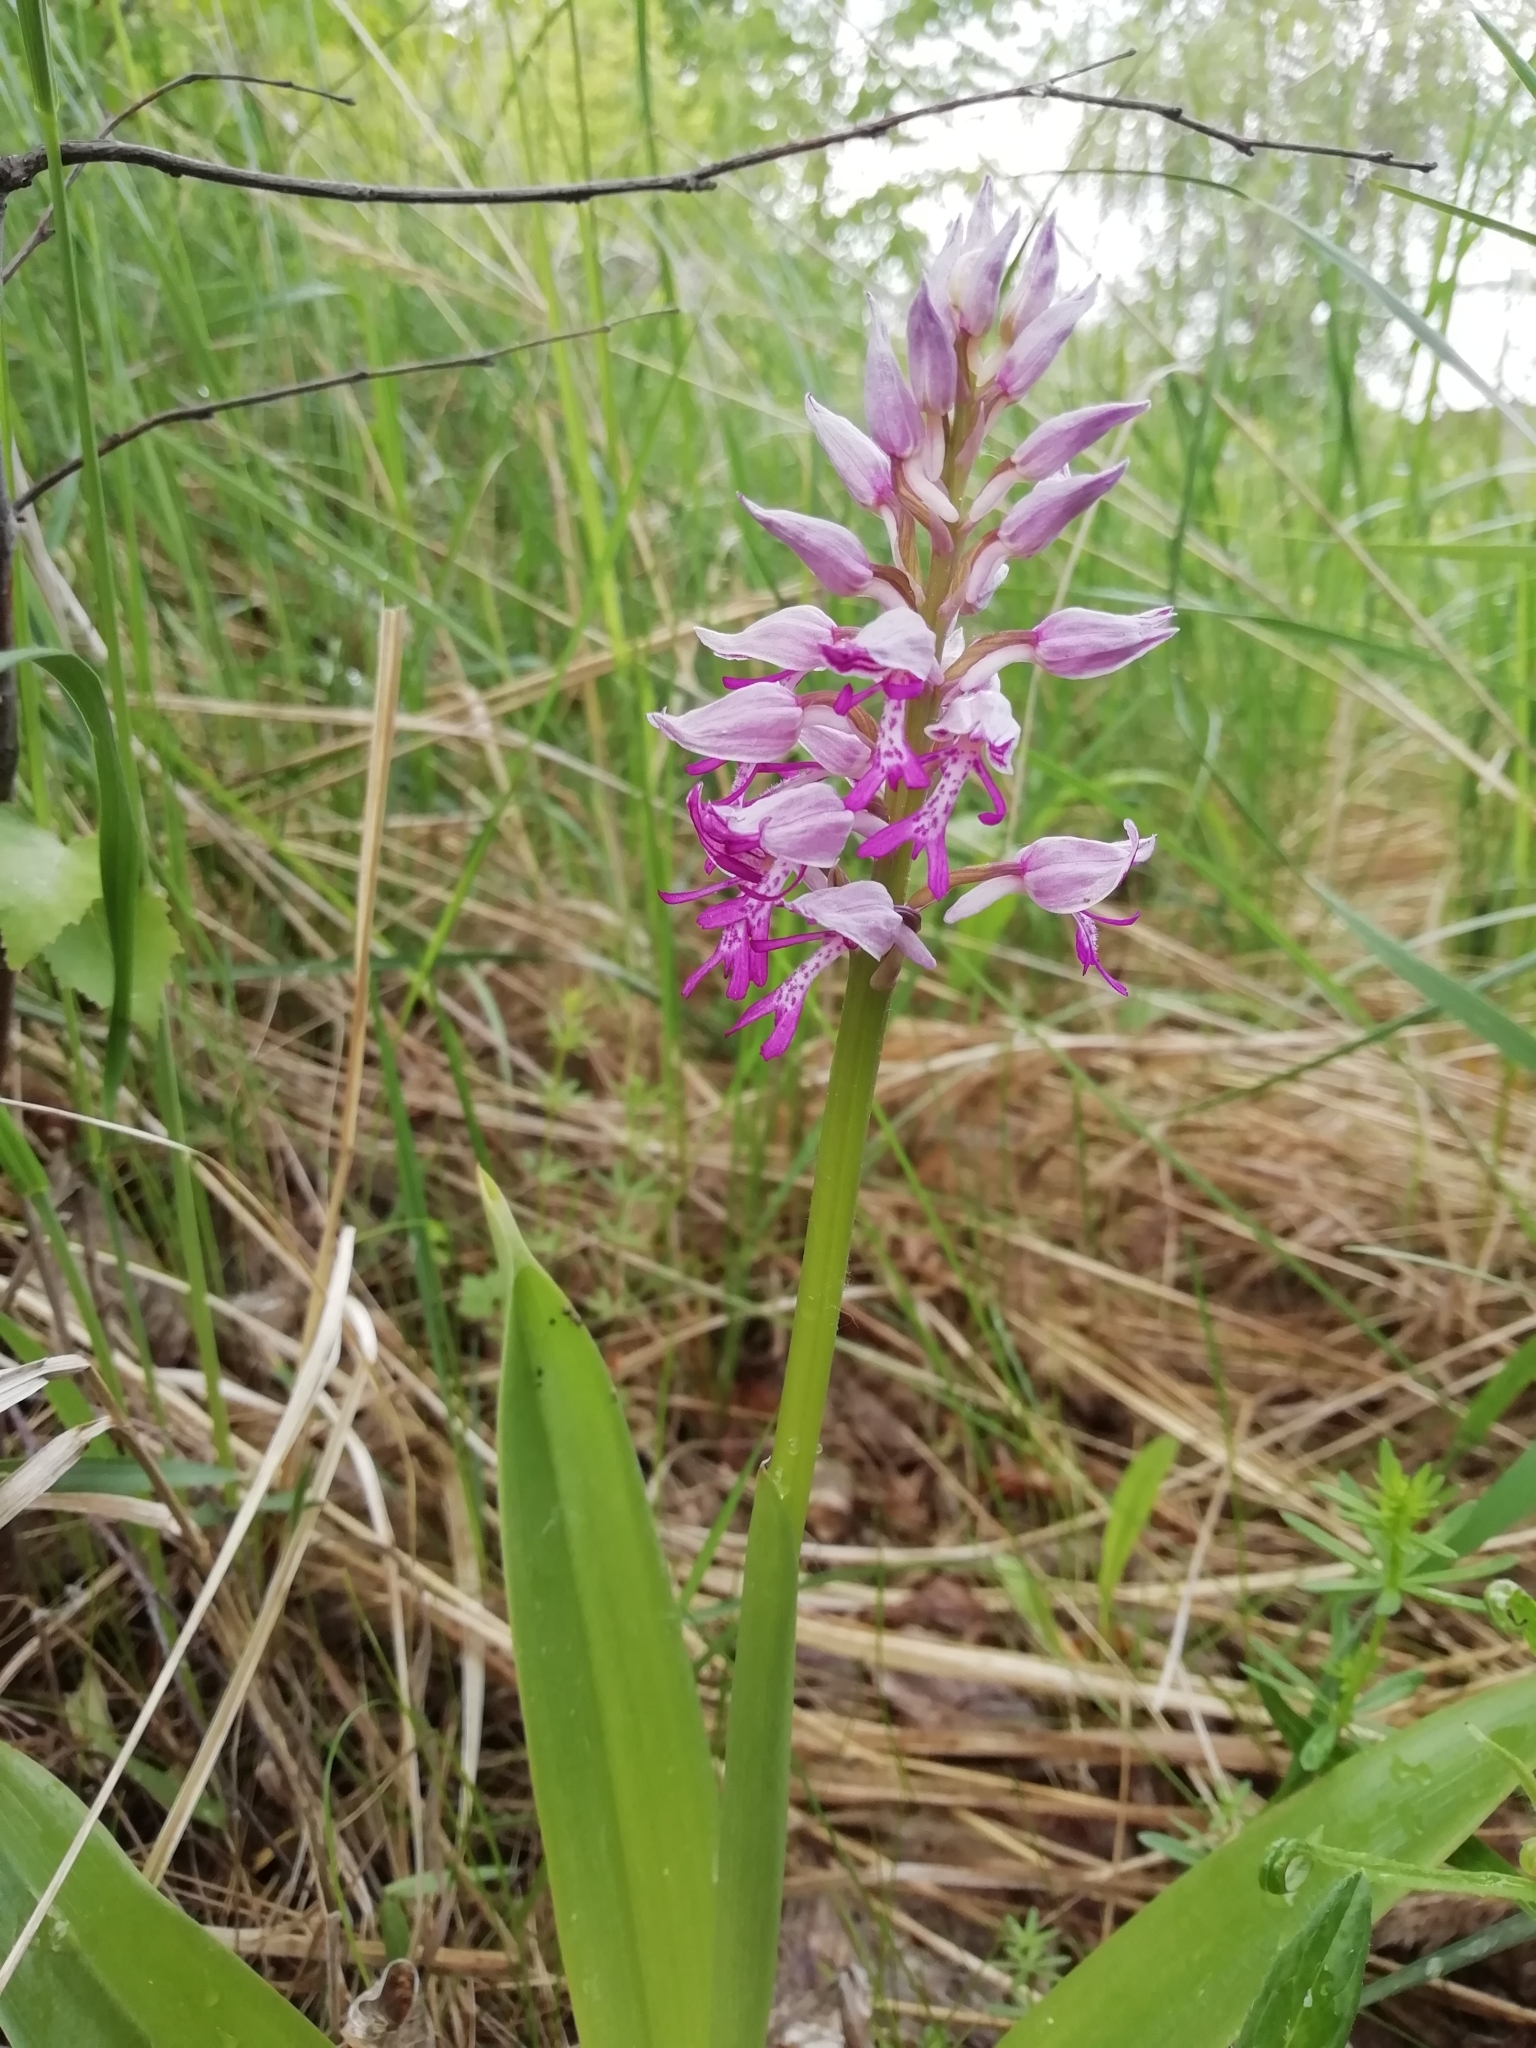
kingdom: Plantae
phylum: Tracheophyta
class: Liliopsida
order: Asparagales
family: Orchidaceae
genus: Orchis
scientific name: Orchis militaris
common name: Military orchid
